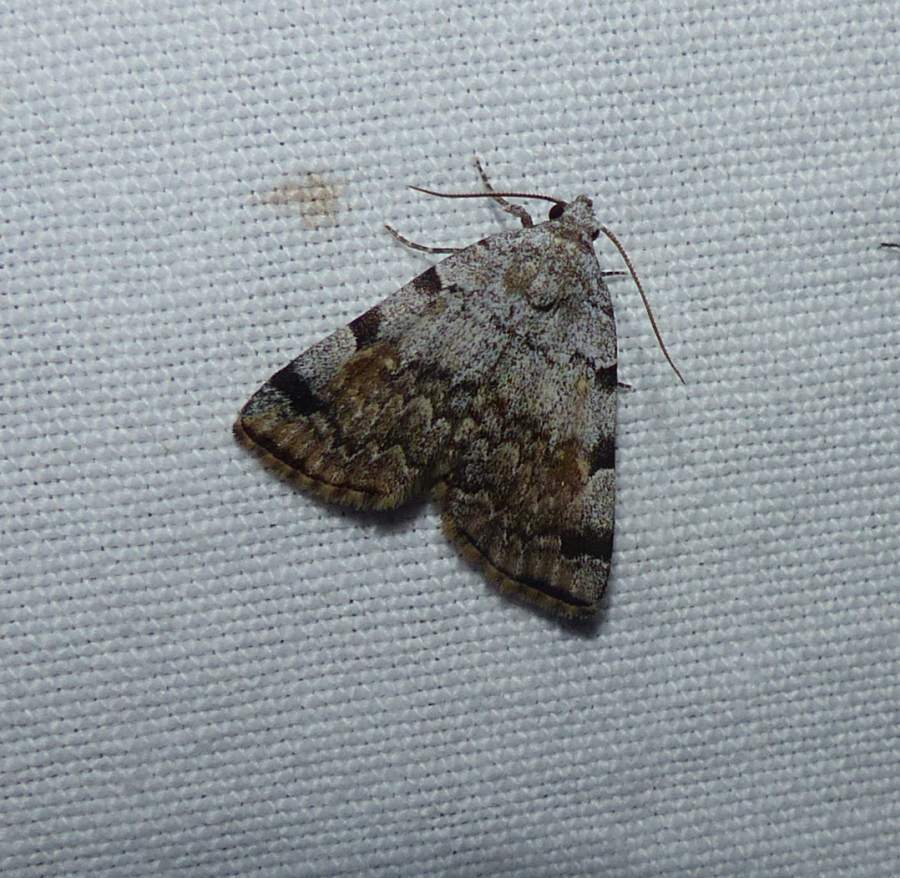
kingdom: Animalia
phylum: Arthropoda
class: Insecta
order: Lepidoptera
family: Erebidae
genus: Idia
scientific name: Idia americalis
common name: American idia moth
